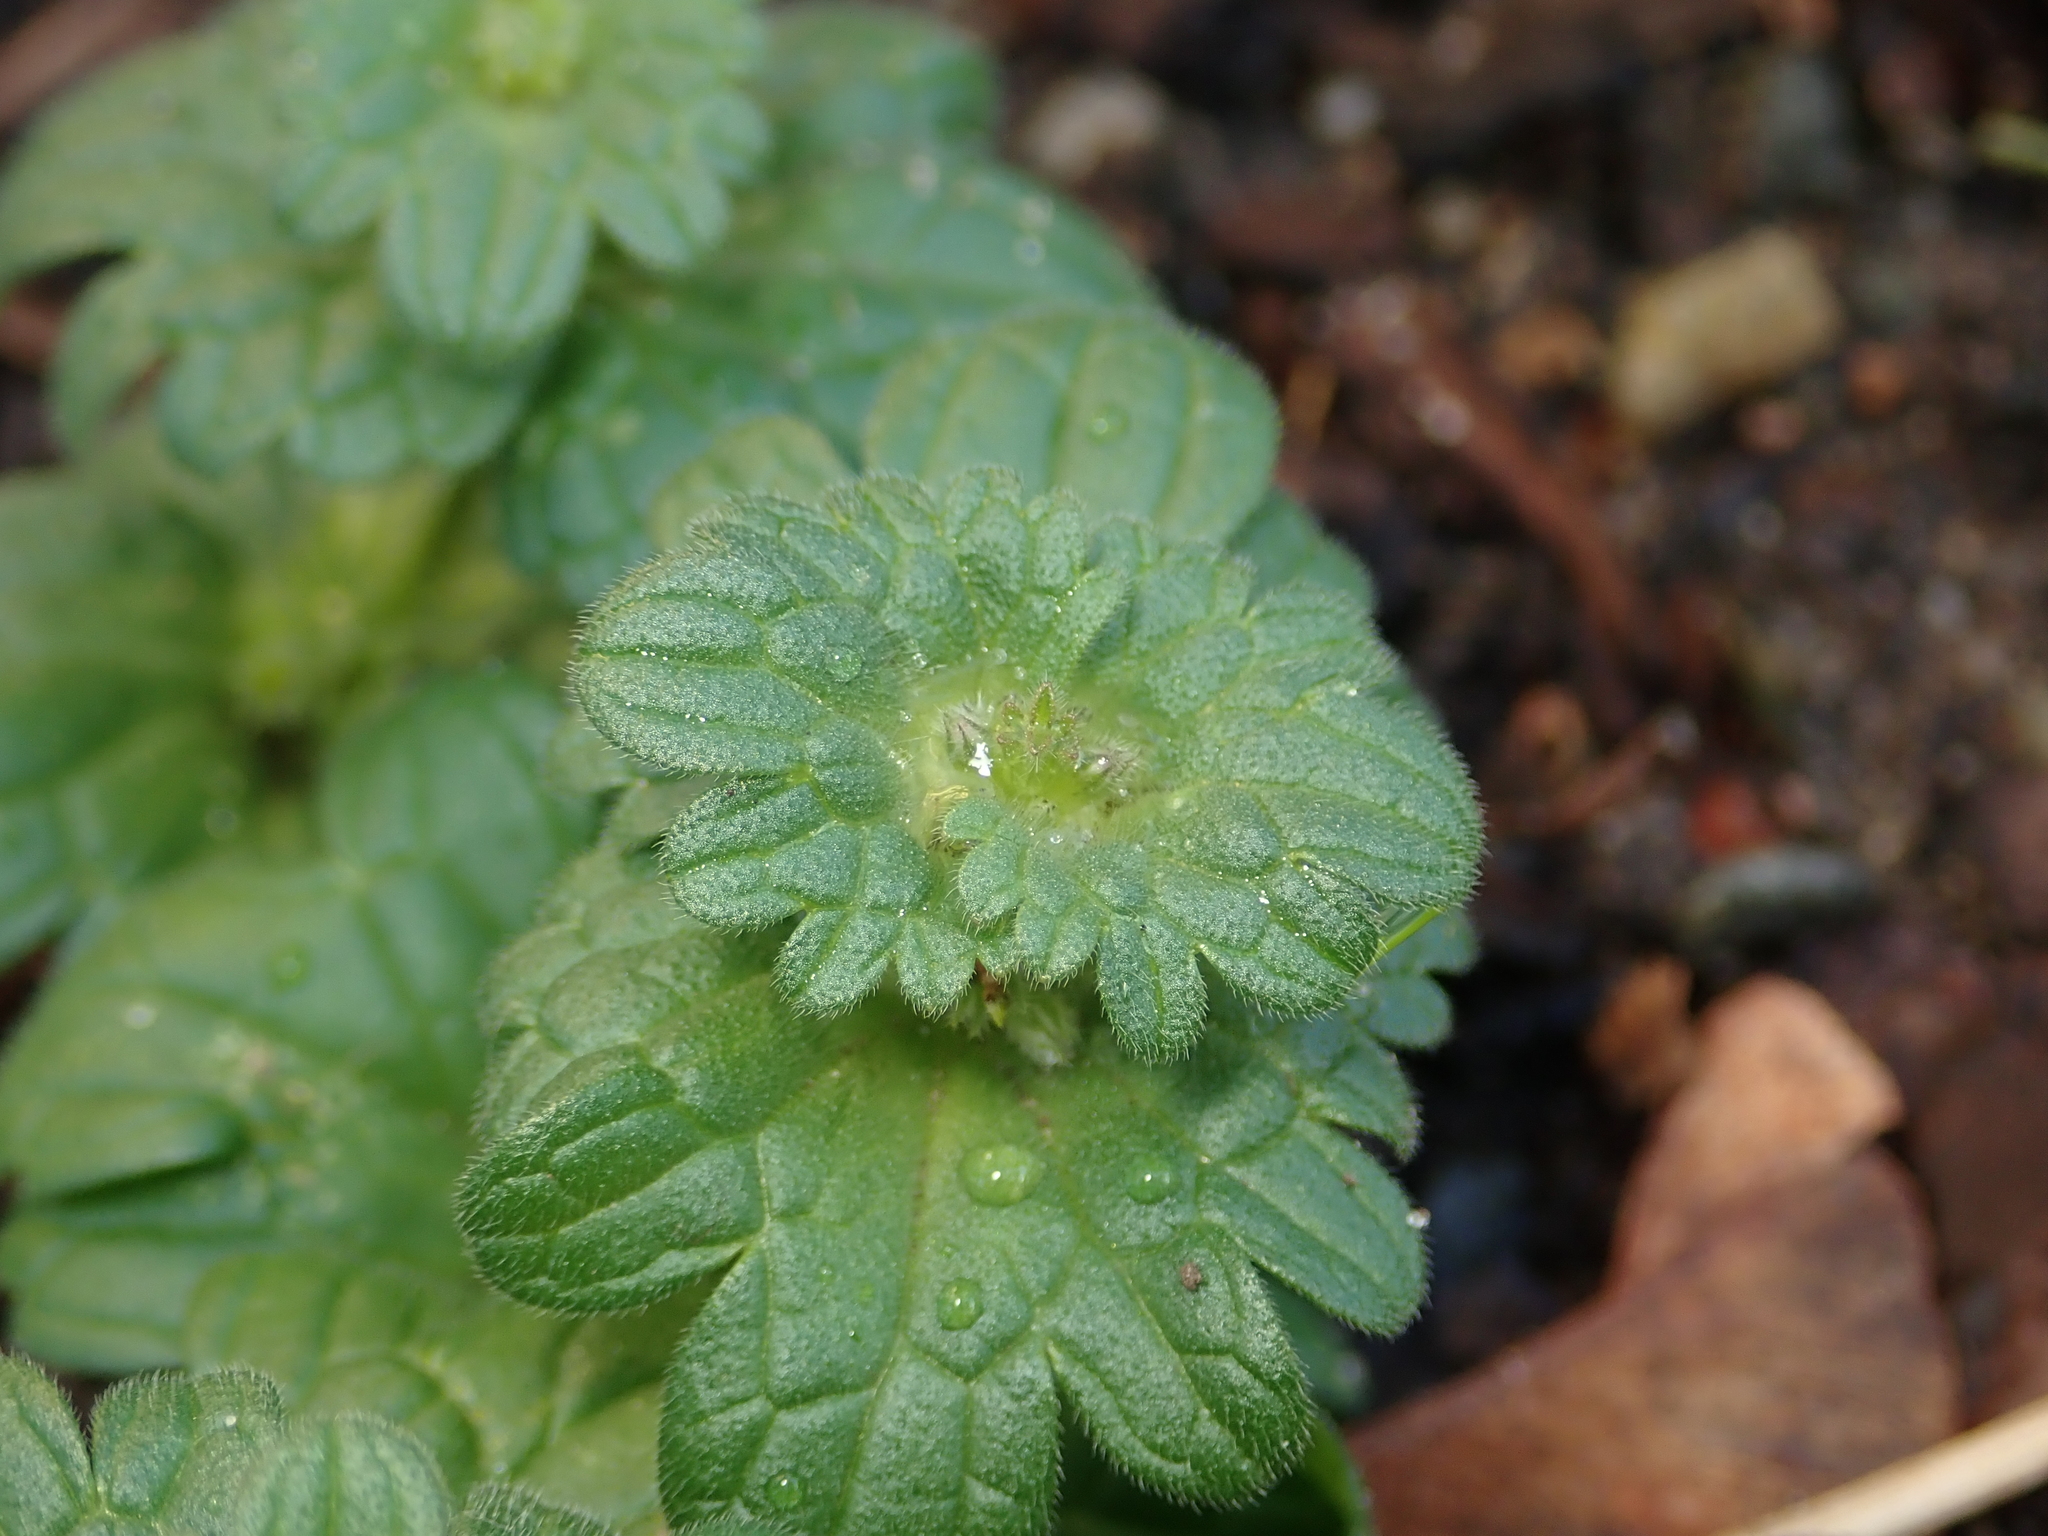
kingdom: Plantae
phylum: Tracheophyta
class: Magnoliopsida
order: Lamiales
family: Lamiaceae
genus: Lamium
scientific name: Lamium amplexicaule
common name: Henbit dead-nettle
